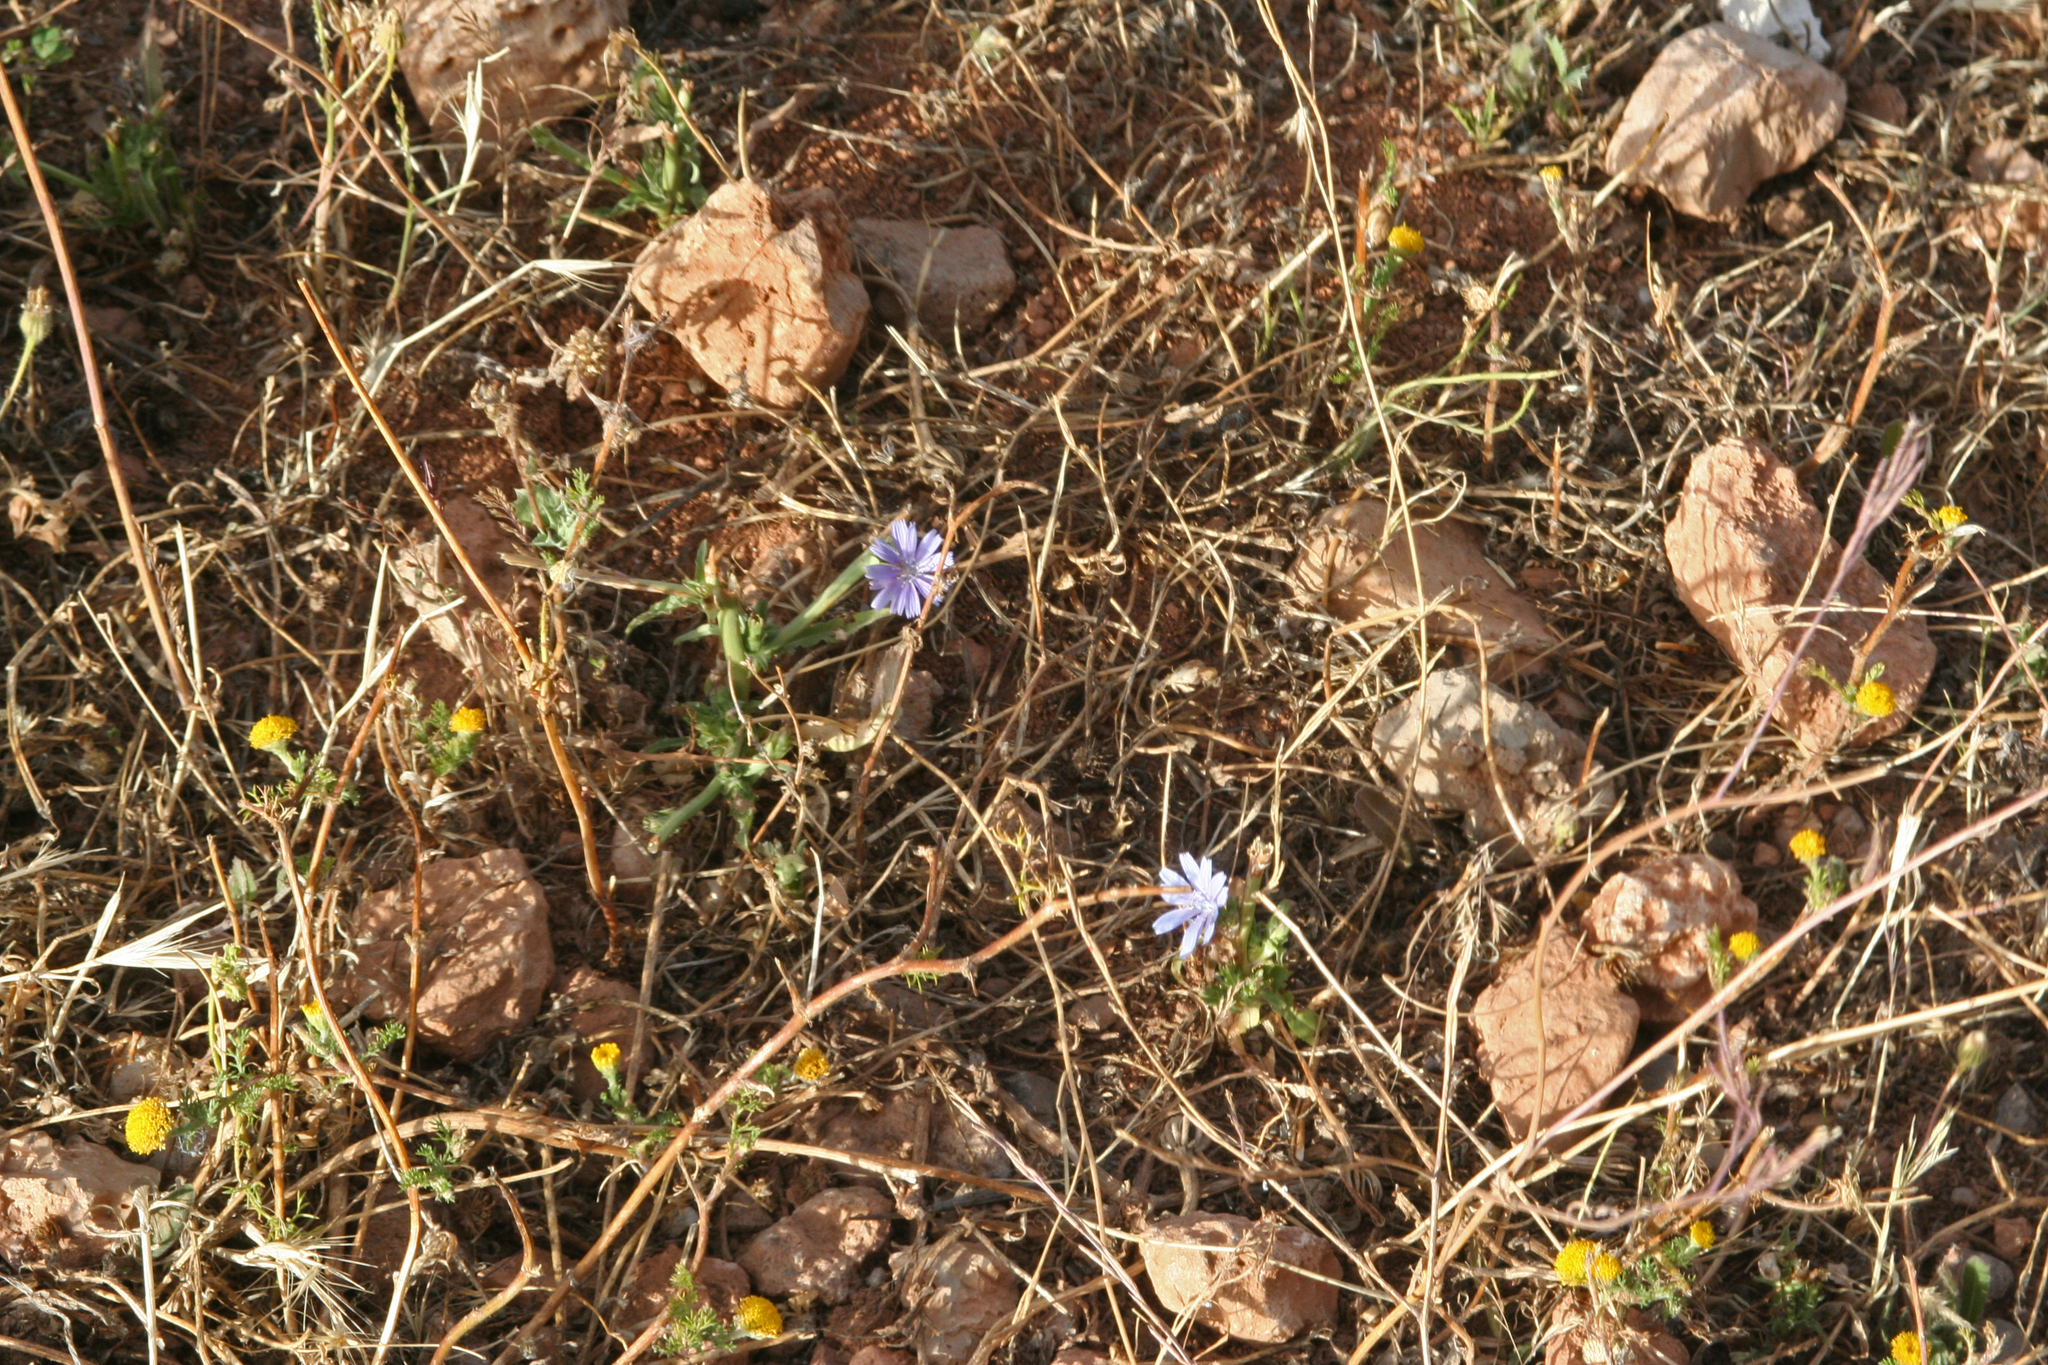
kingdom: Plantae
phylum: Tracheophyta
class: Magnoliopsida
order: Asterales
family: Asteraceae
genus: Cichorium
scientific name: Cichorium intybus
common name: Chicory
